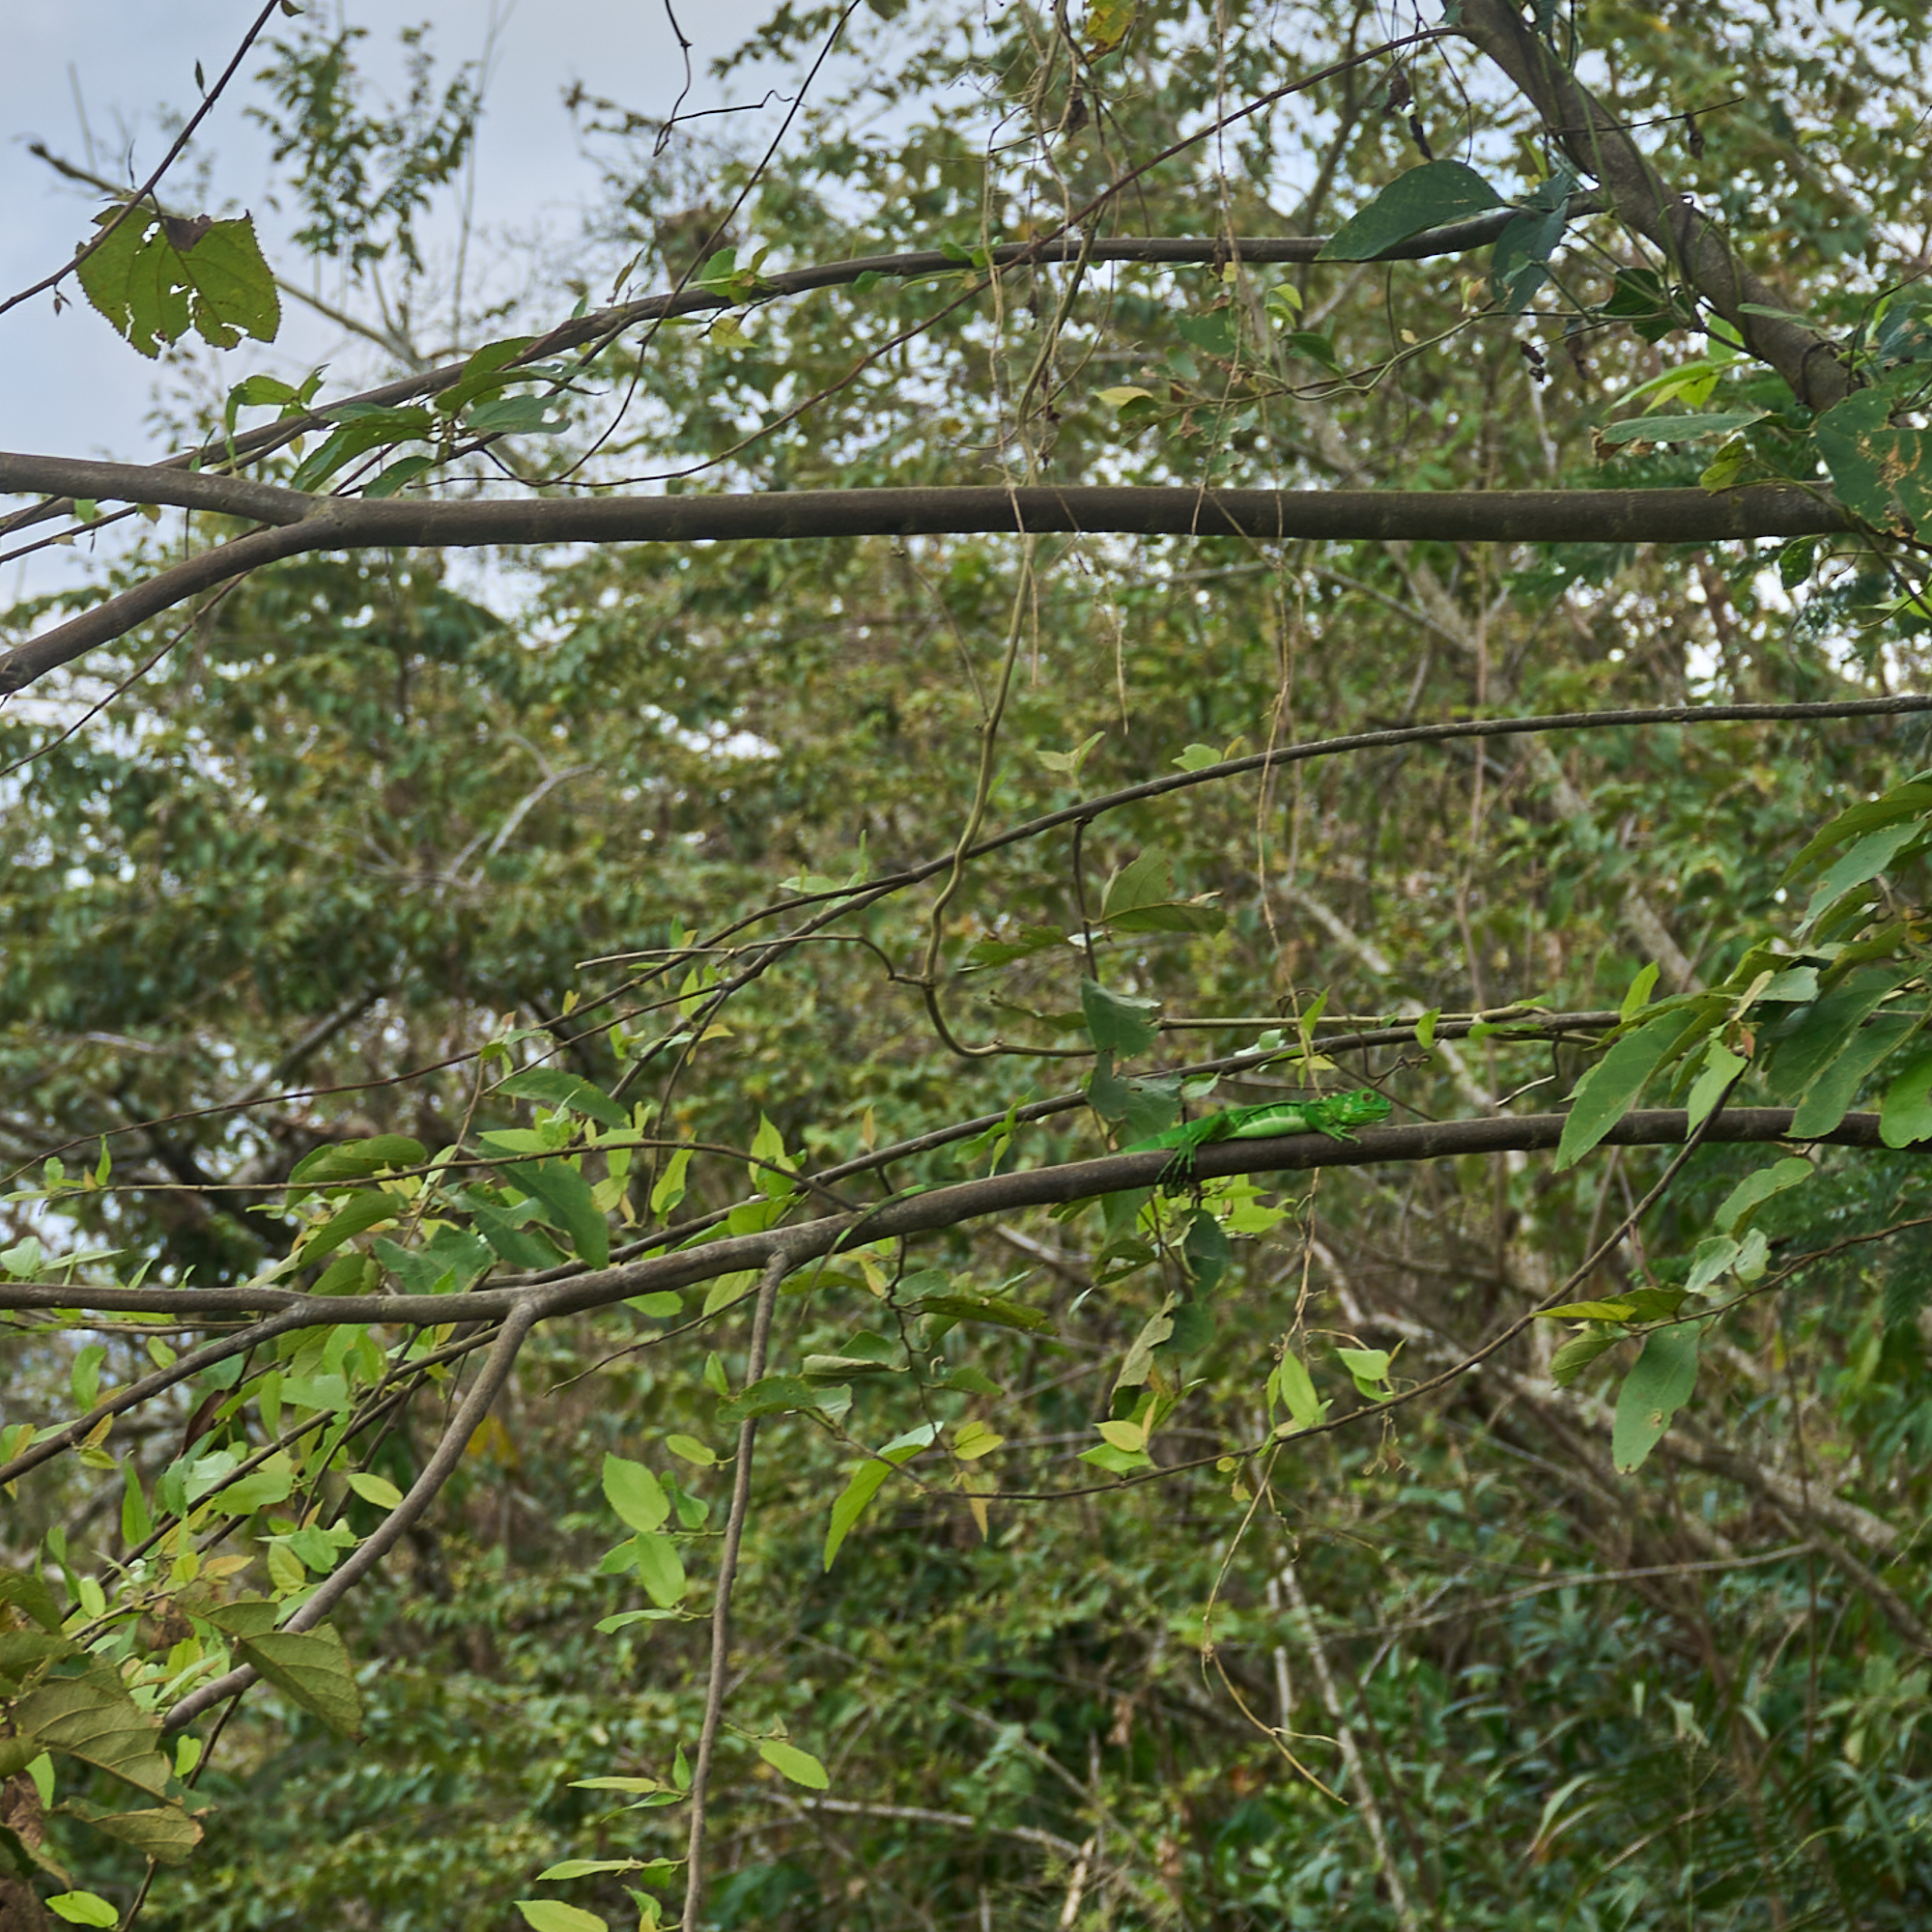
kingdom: Animalia
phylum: Chordata
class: Squamata
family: Iguanidae
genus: Iguana
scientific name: Iguana iguana
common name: Green iguana
